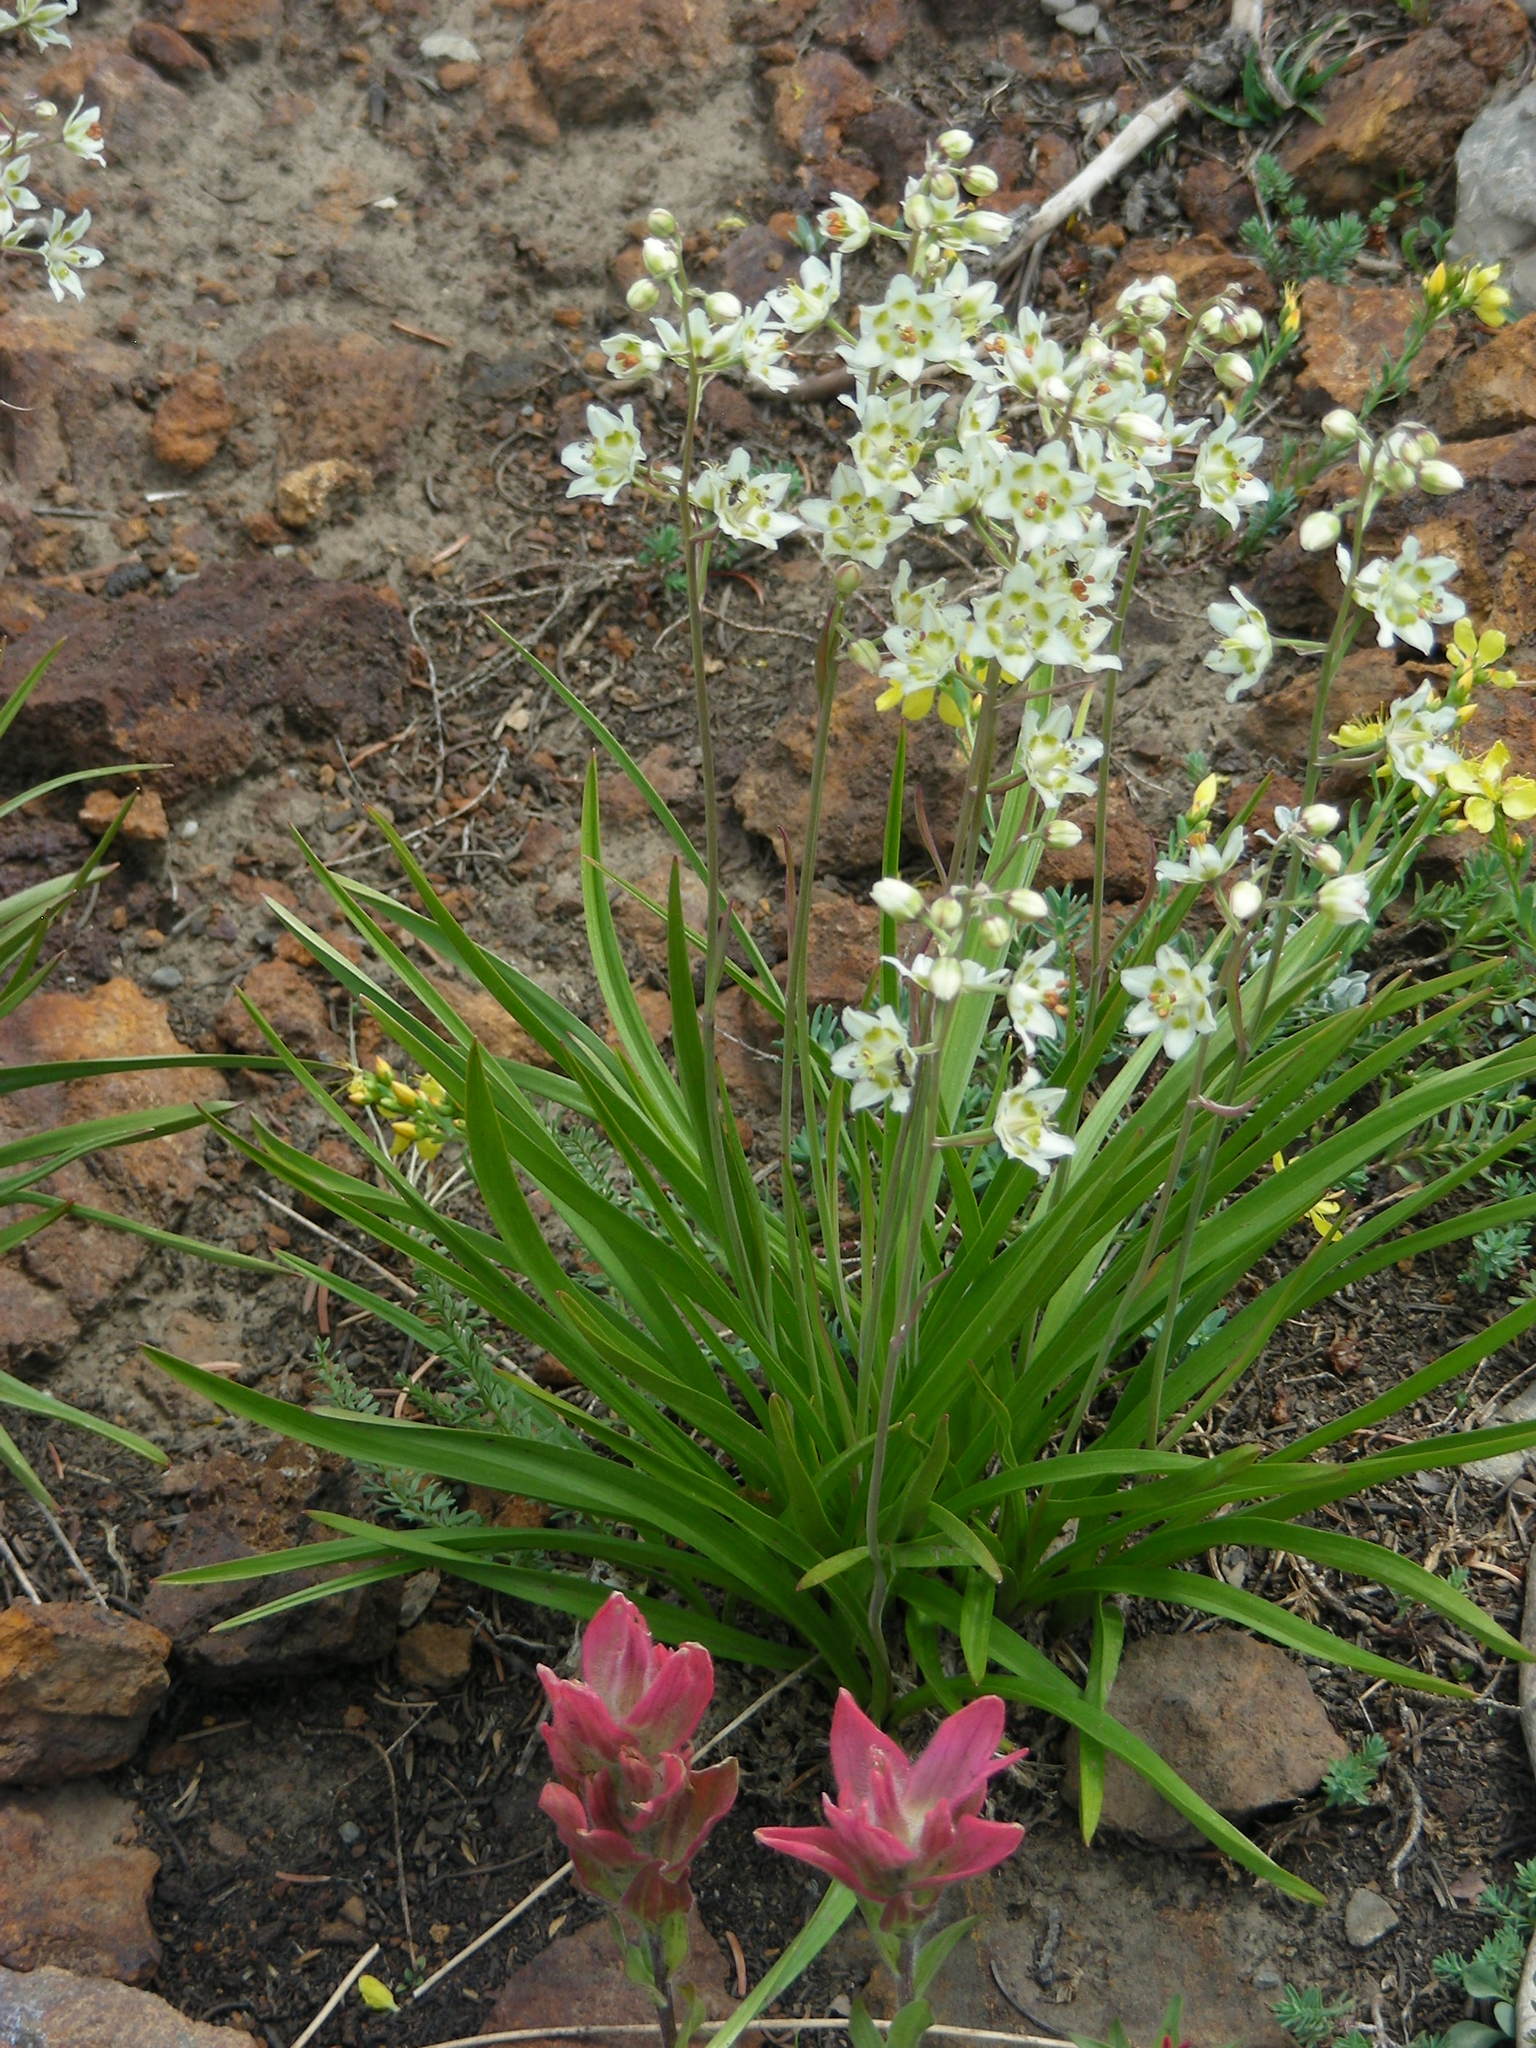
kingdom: Plantae
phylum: Tracheophyta
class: Liliopsida
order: Liliales
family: Melanthiaceae
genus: Anticlea
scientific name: Anticlea elegans
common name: Mountain death camas
